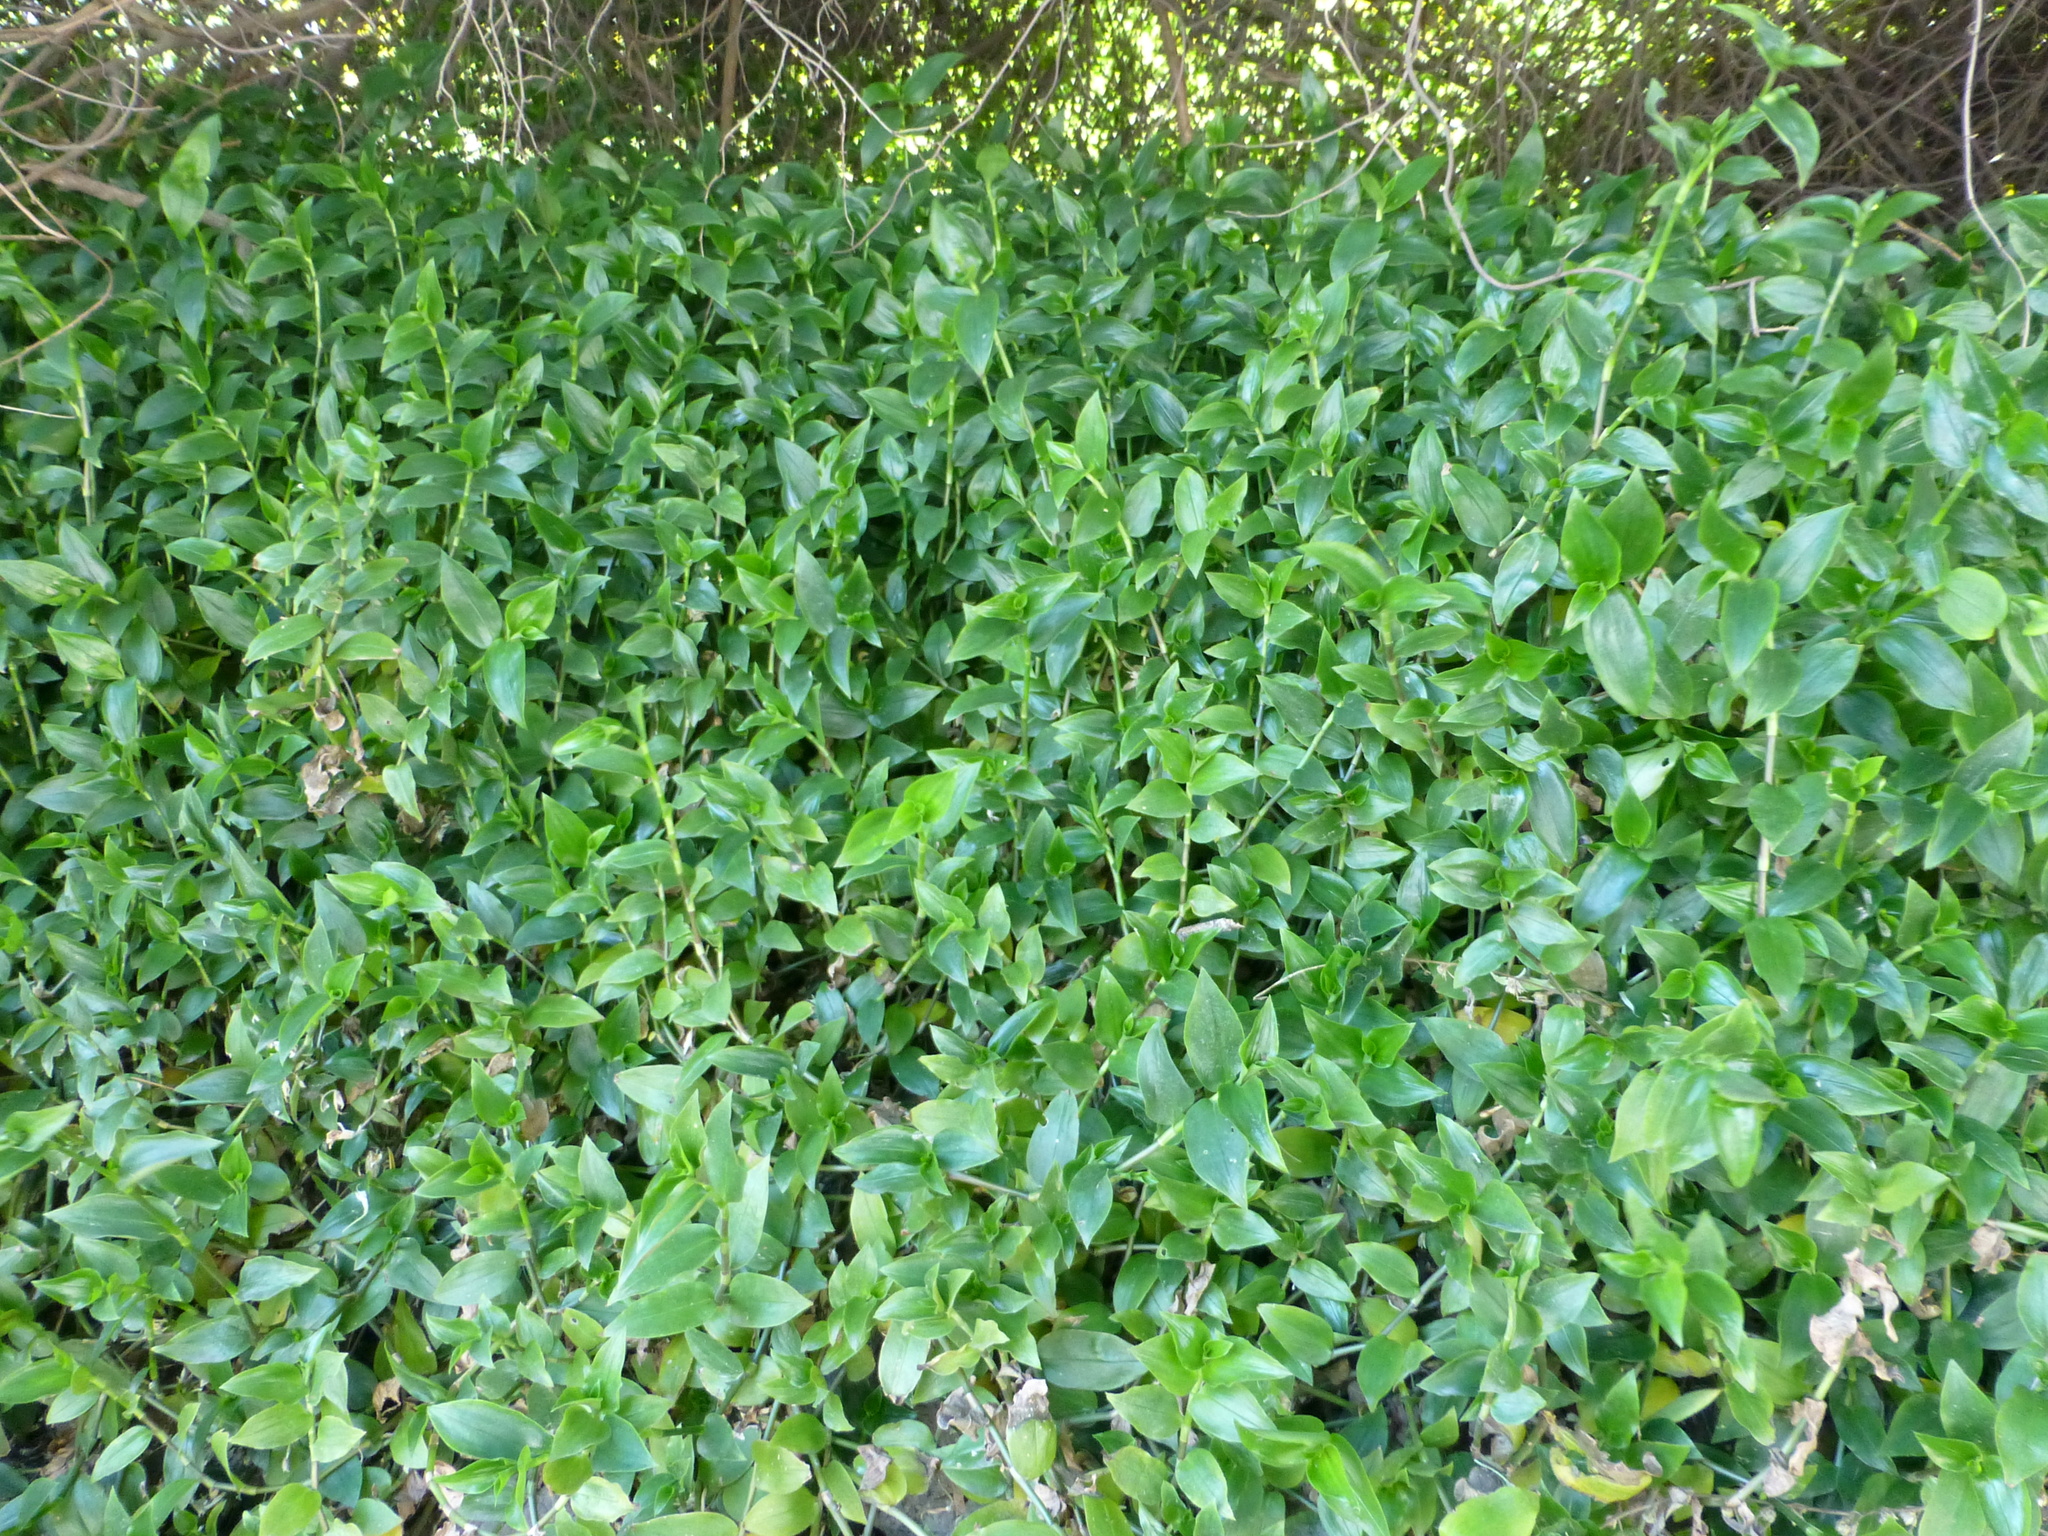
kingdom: Plantae
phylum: Tracheophyta
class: Liliopsida
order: Commelinales
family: Commelinaceae
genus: Tradescantia
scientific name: Tradescantia fluminensis
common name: Wandering-jew
